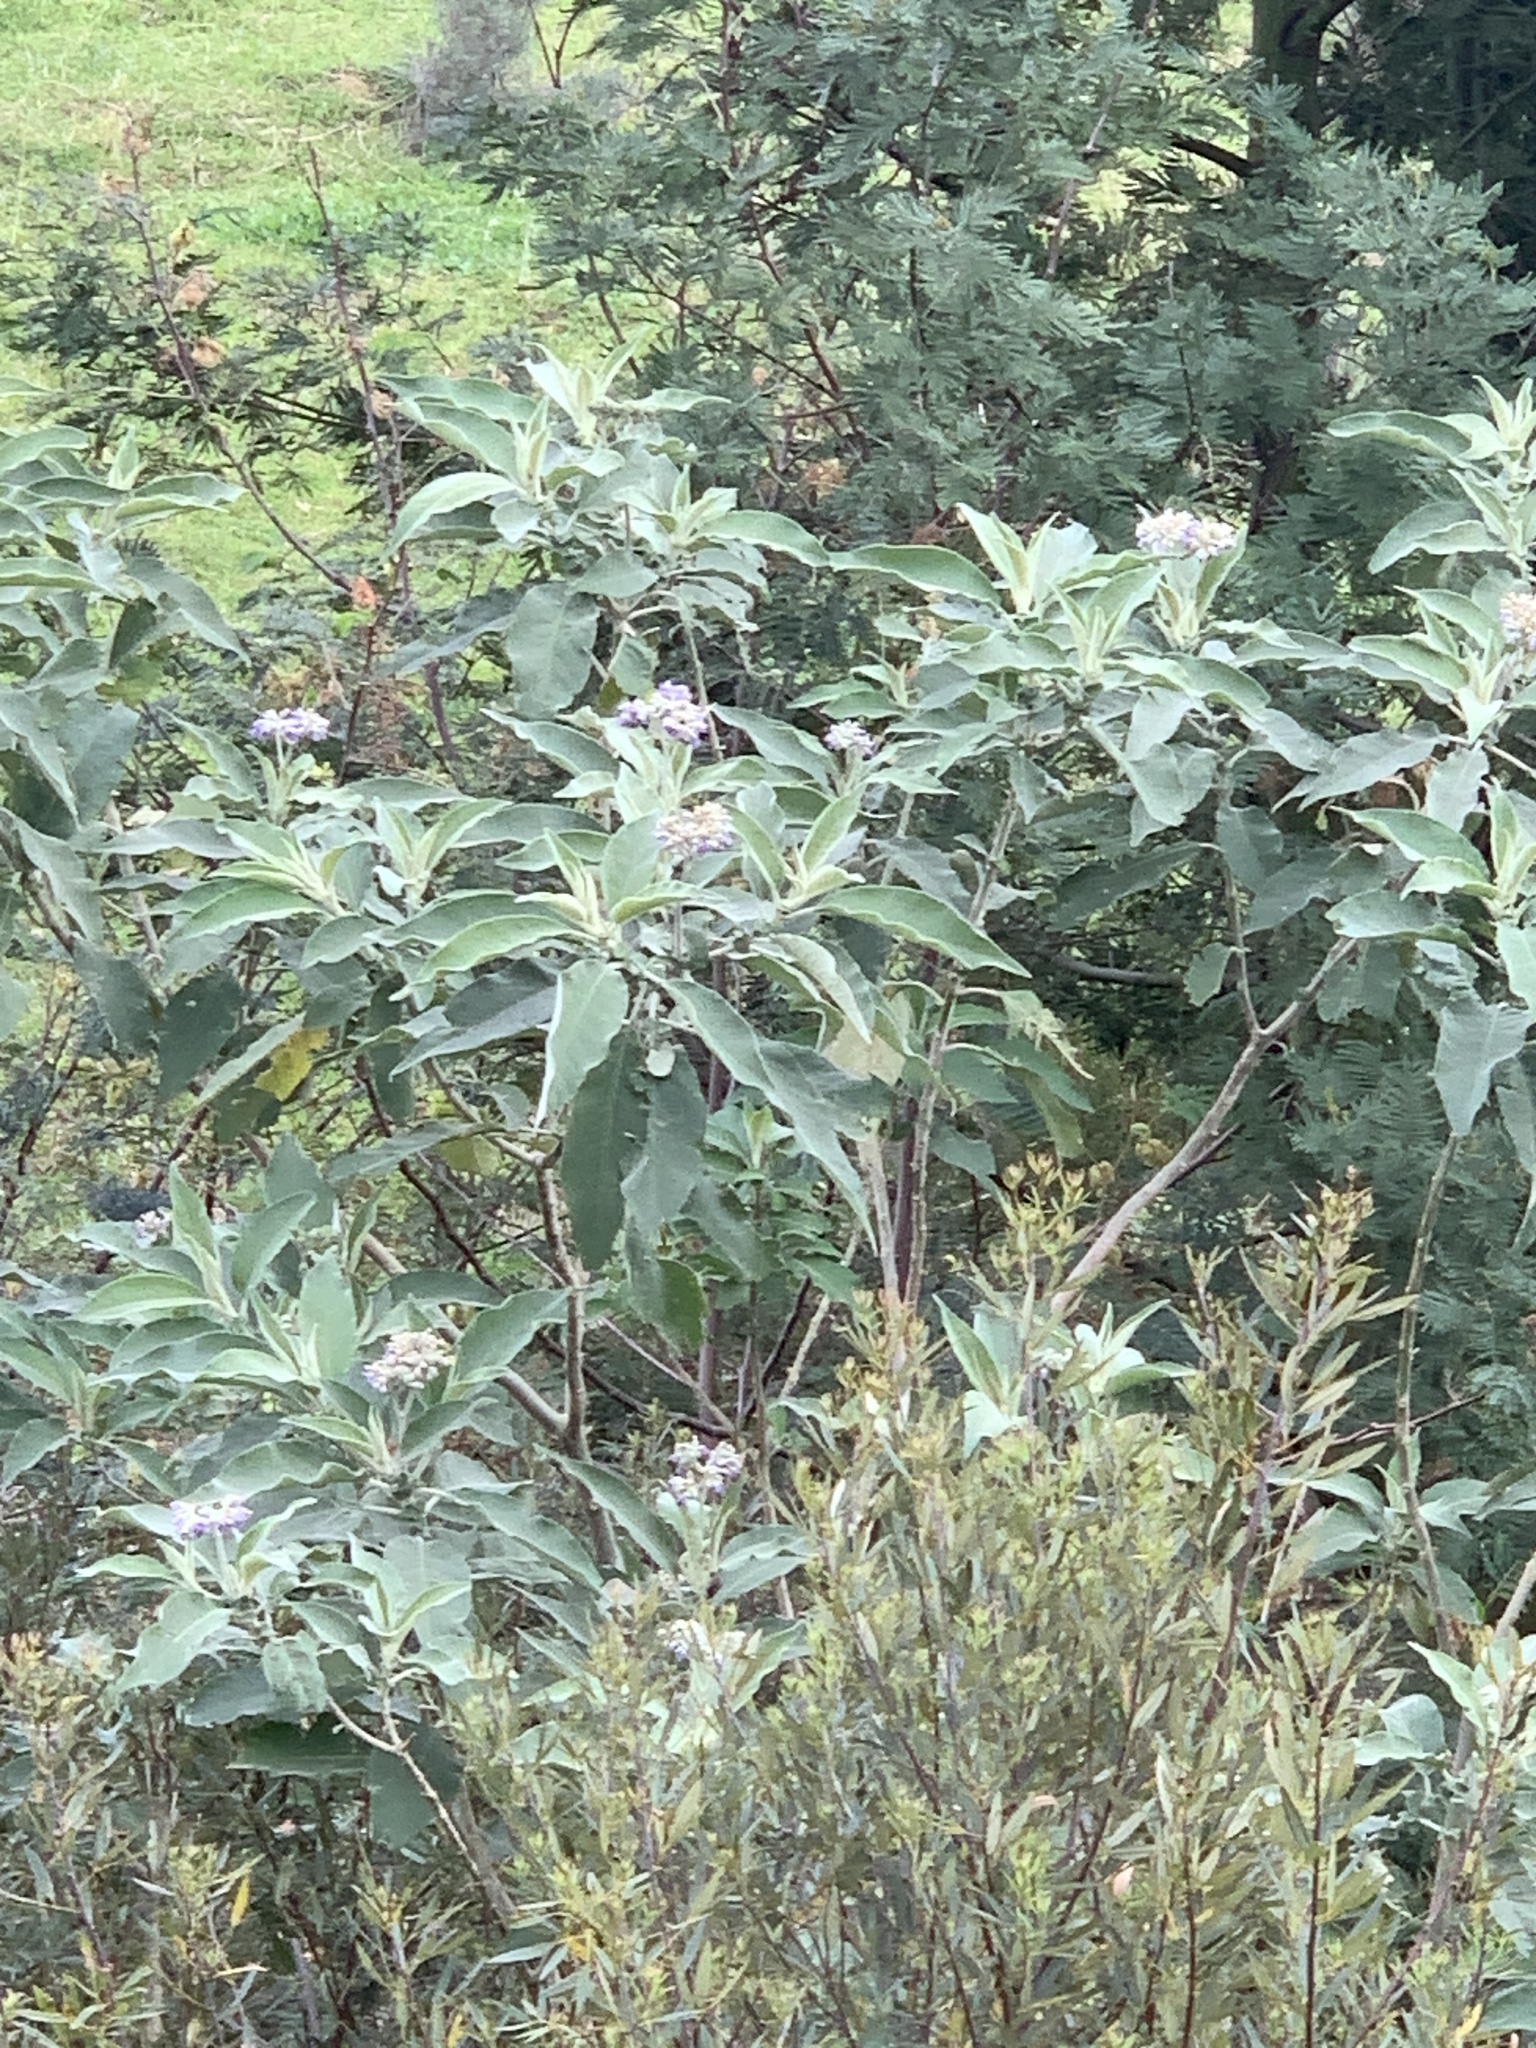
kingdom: Plantae
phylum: Tracheophyta
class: Magnoliopsida
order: Solanales
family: Solanaceae
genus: Solanum
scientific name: Solanum mauritianum
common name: Earleaf nightshade
